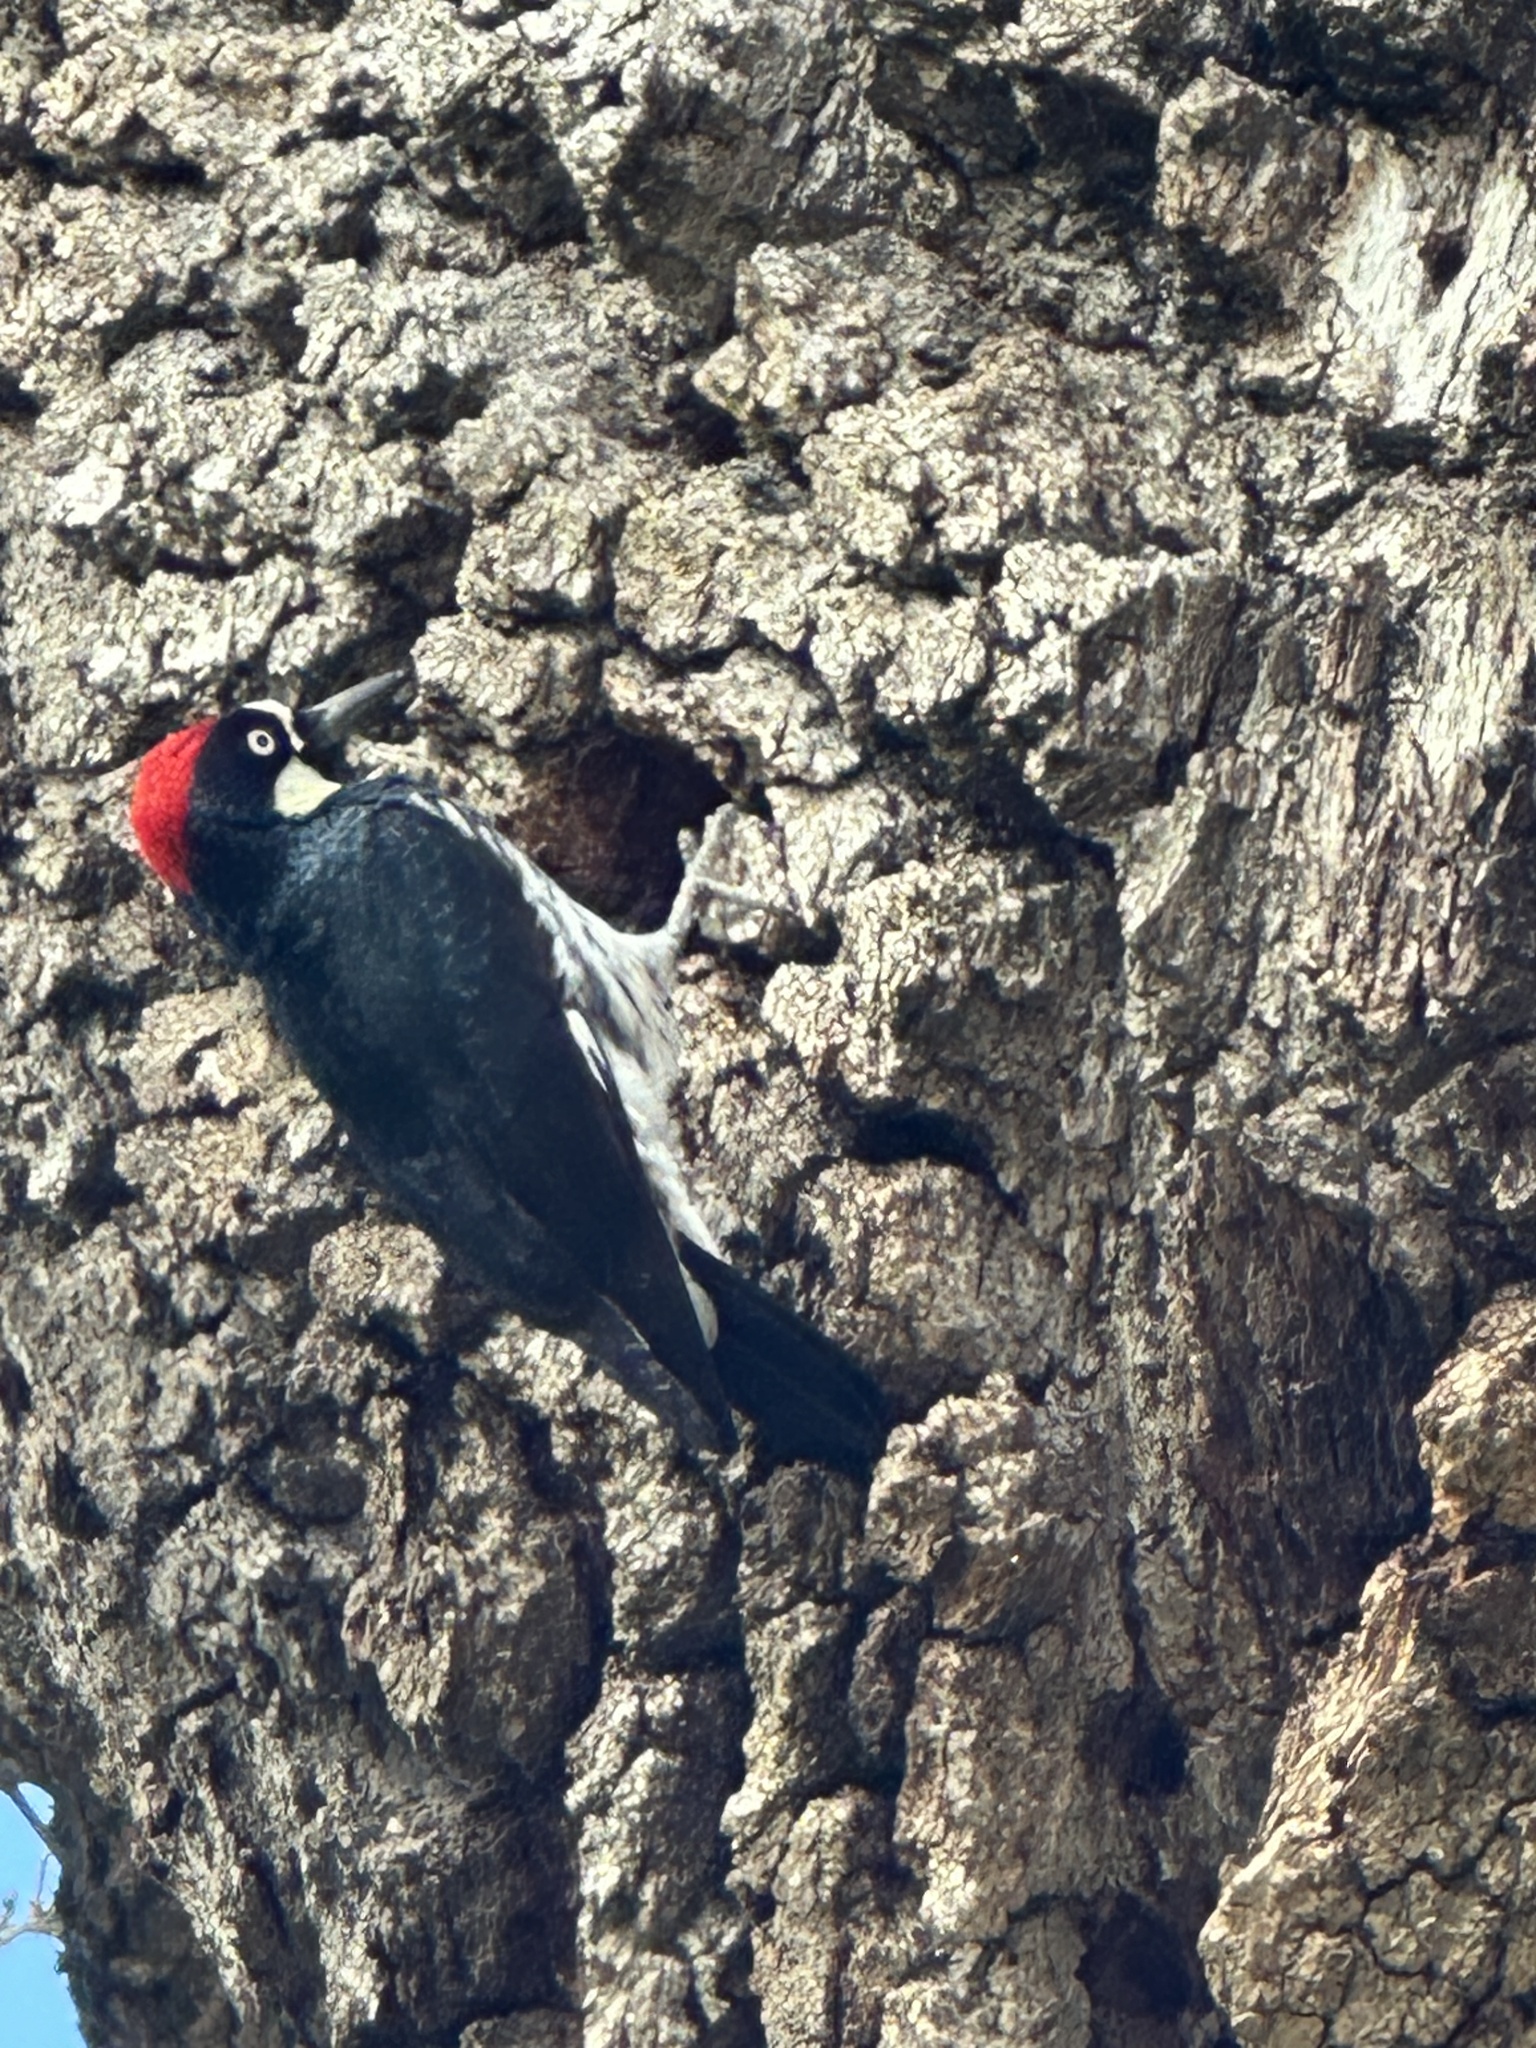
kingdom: Animalia
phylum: Chordata
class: Aves
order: Piciformes
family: Picidae
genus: Melanerpes
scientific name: Melanerpes formicivorus
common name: Acorn woodpecker
